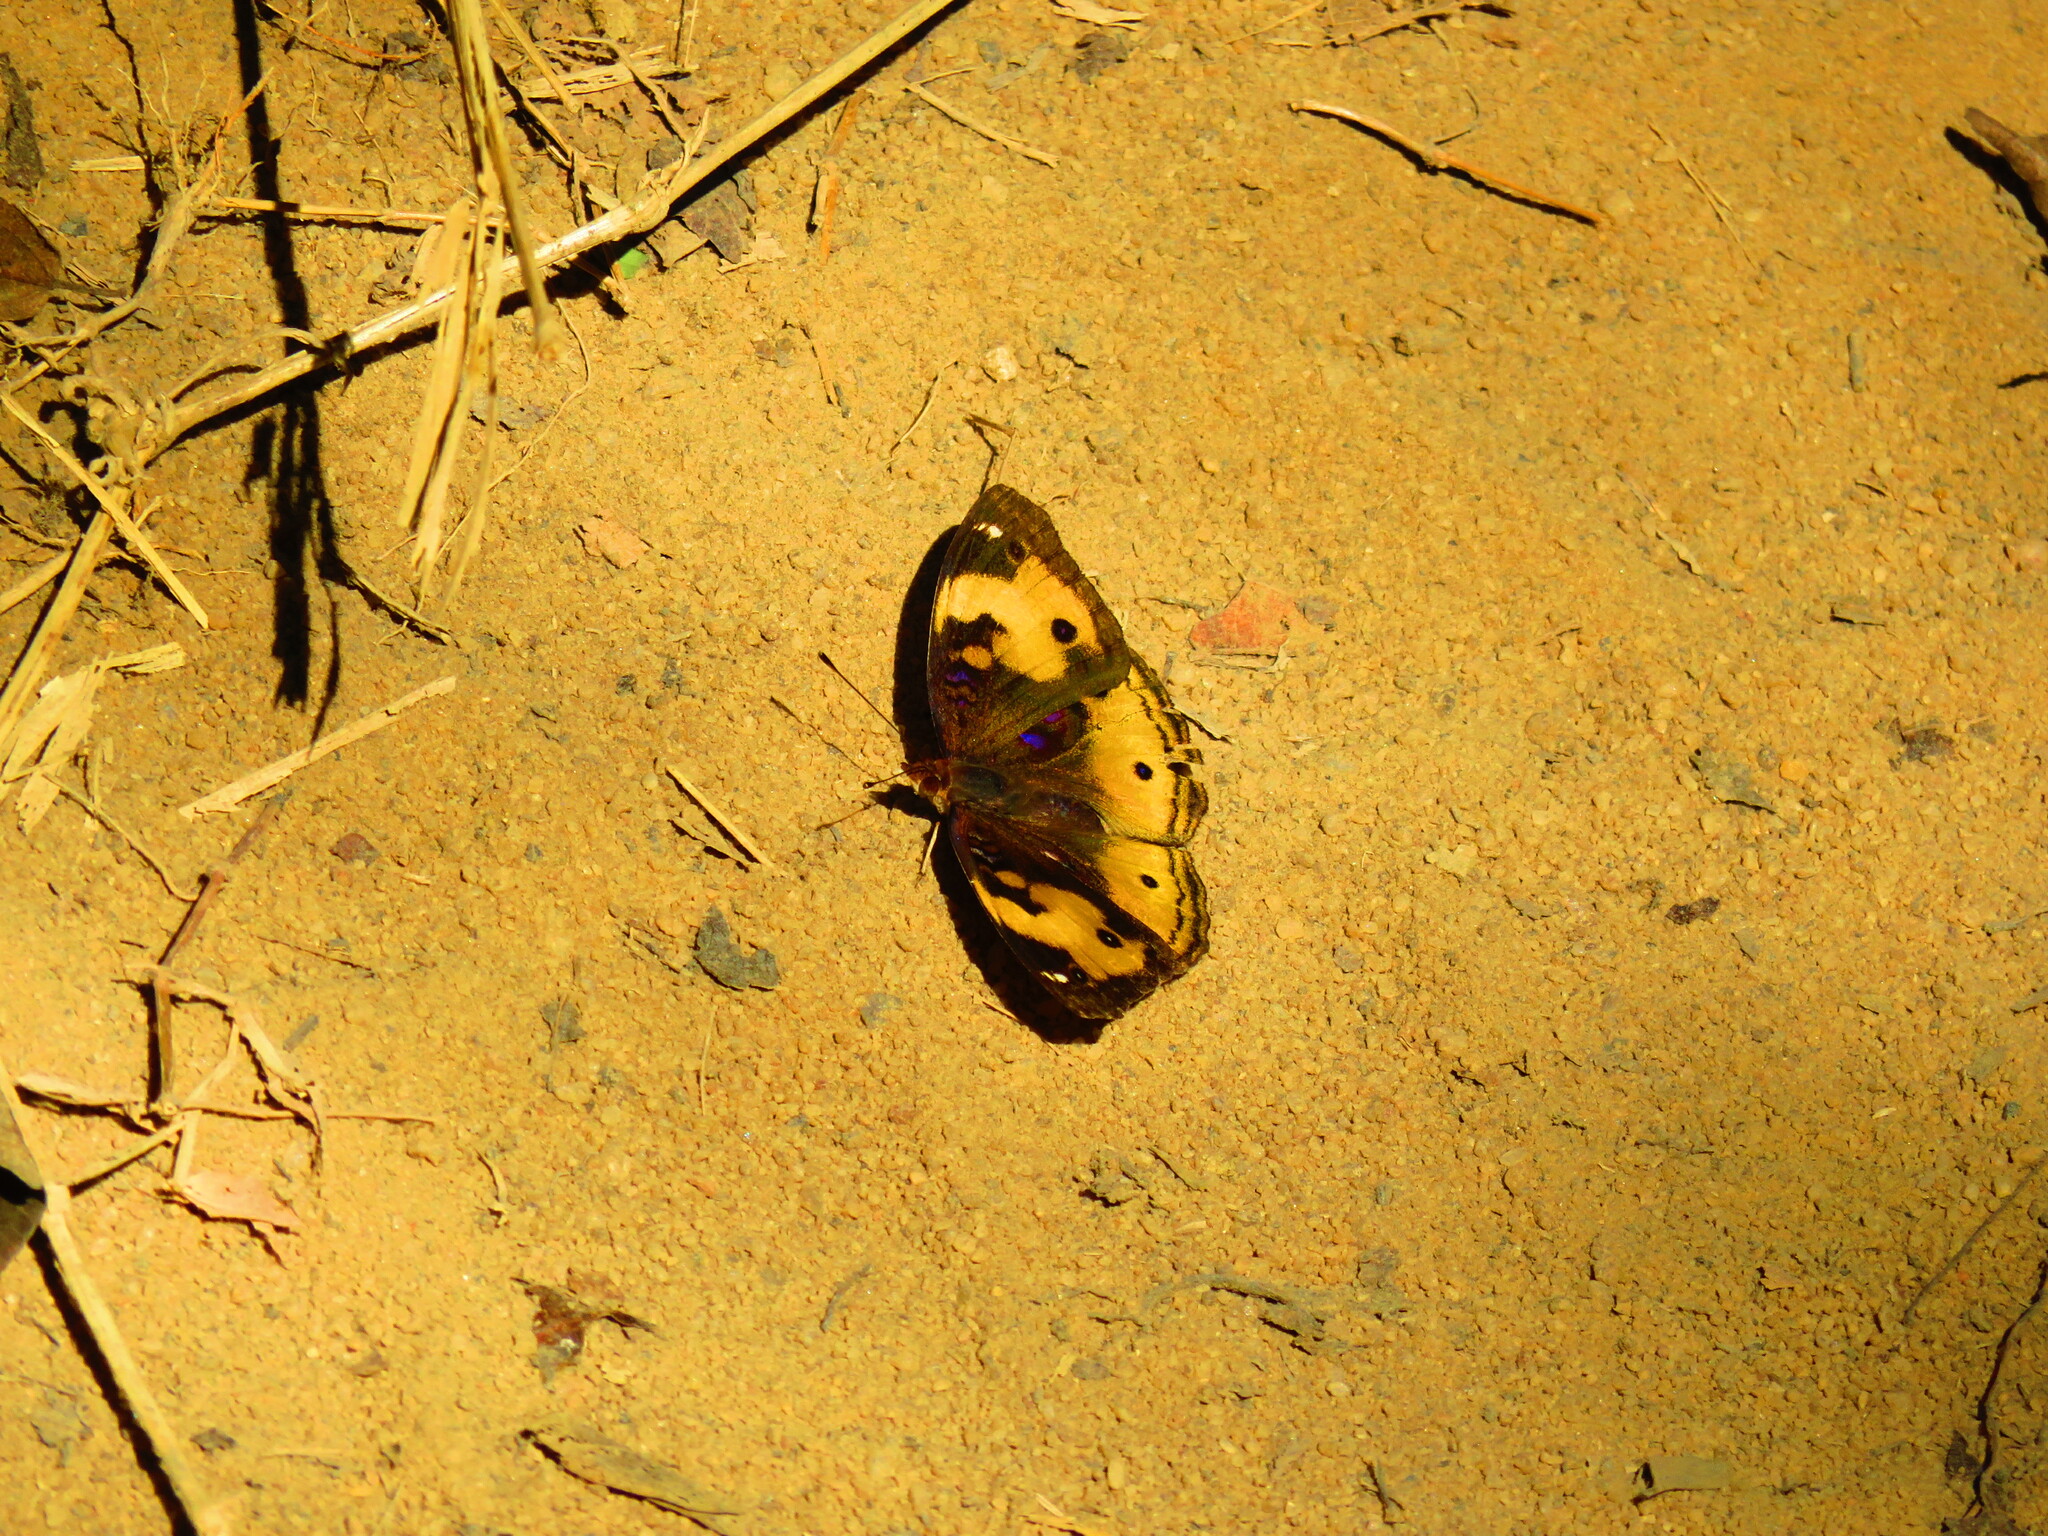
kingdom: Animalia
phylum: Arthropoda
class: Insecta
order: Lepidoptera
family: Nymphalidae
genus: Junonia
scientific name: Junonia hierta
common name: Yellow pansy
